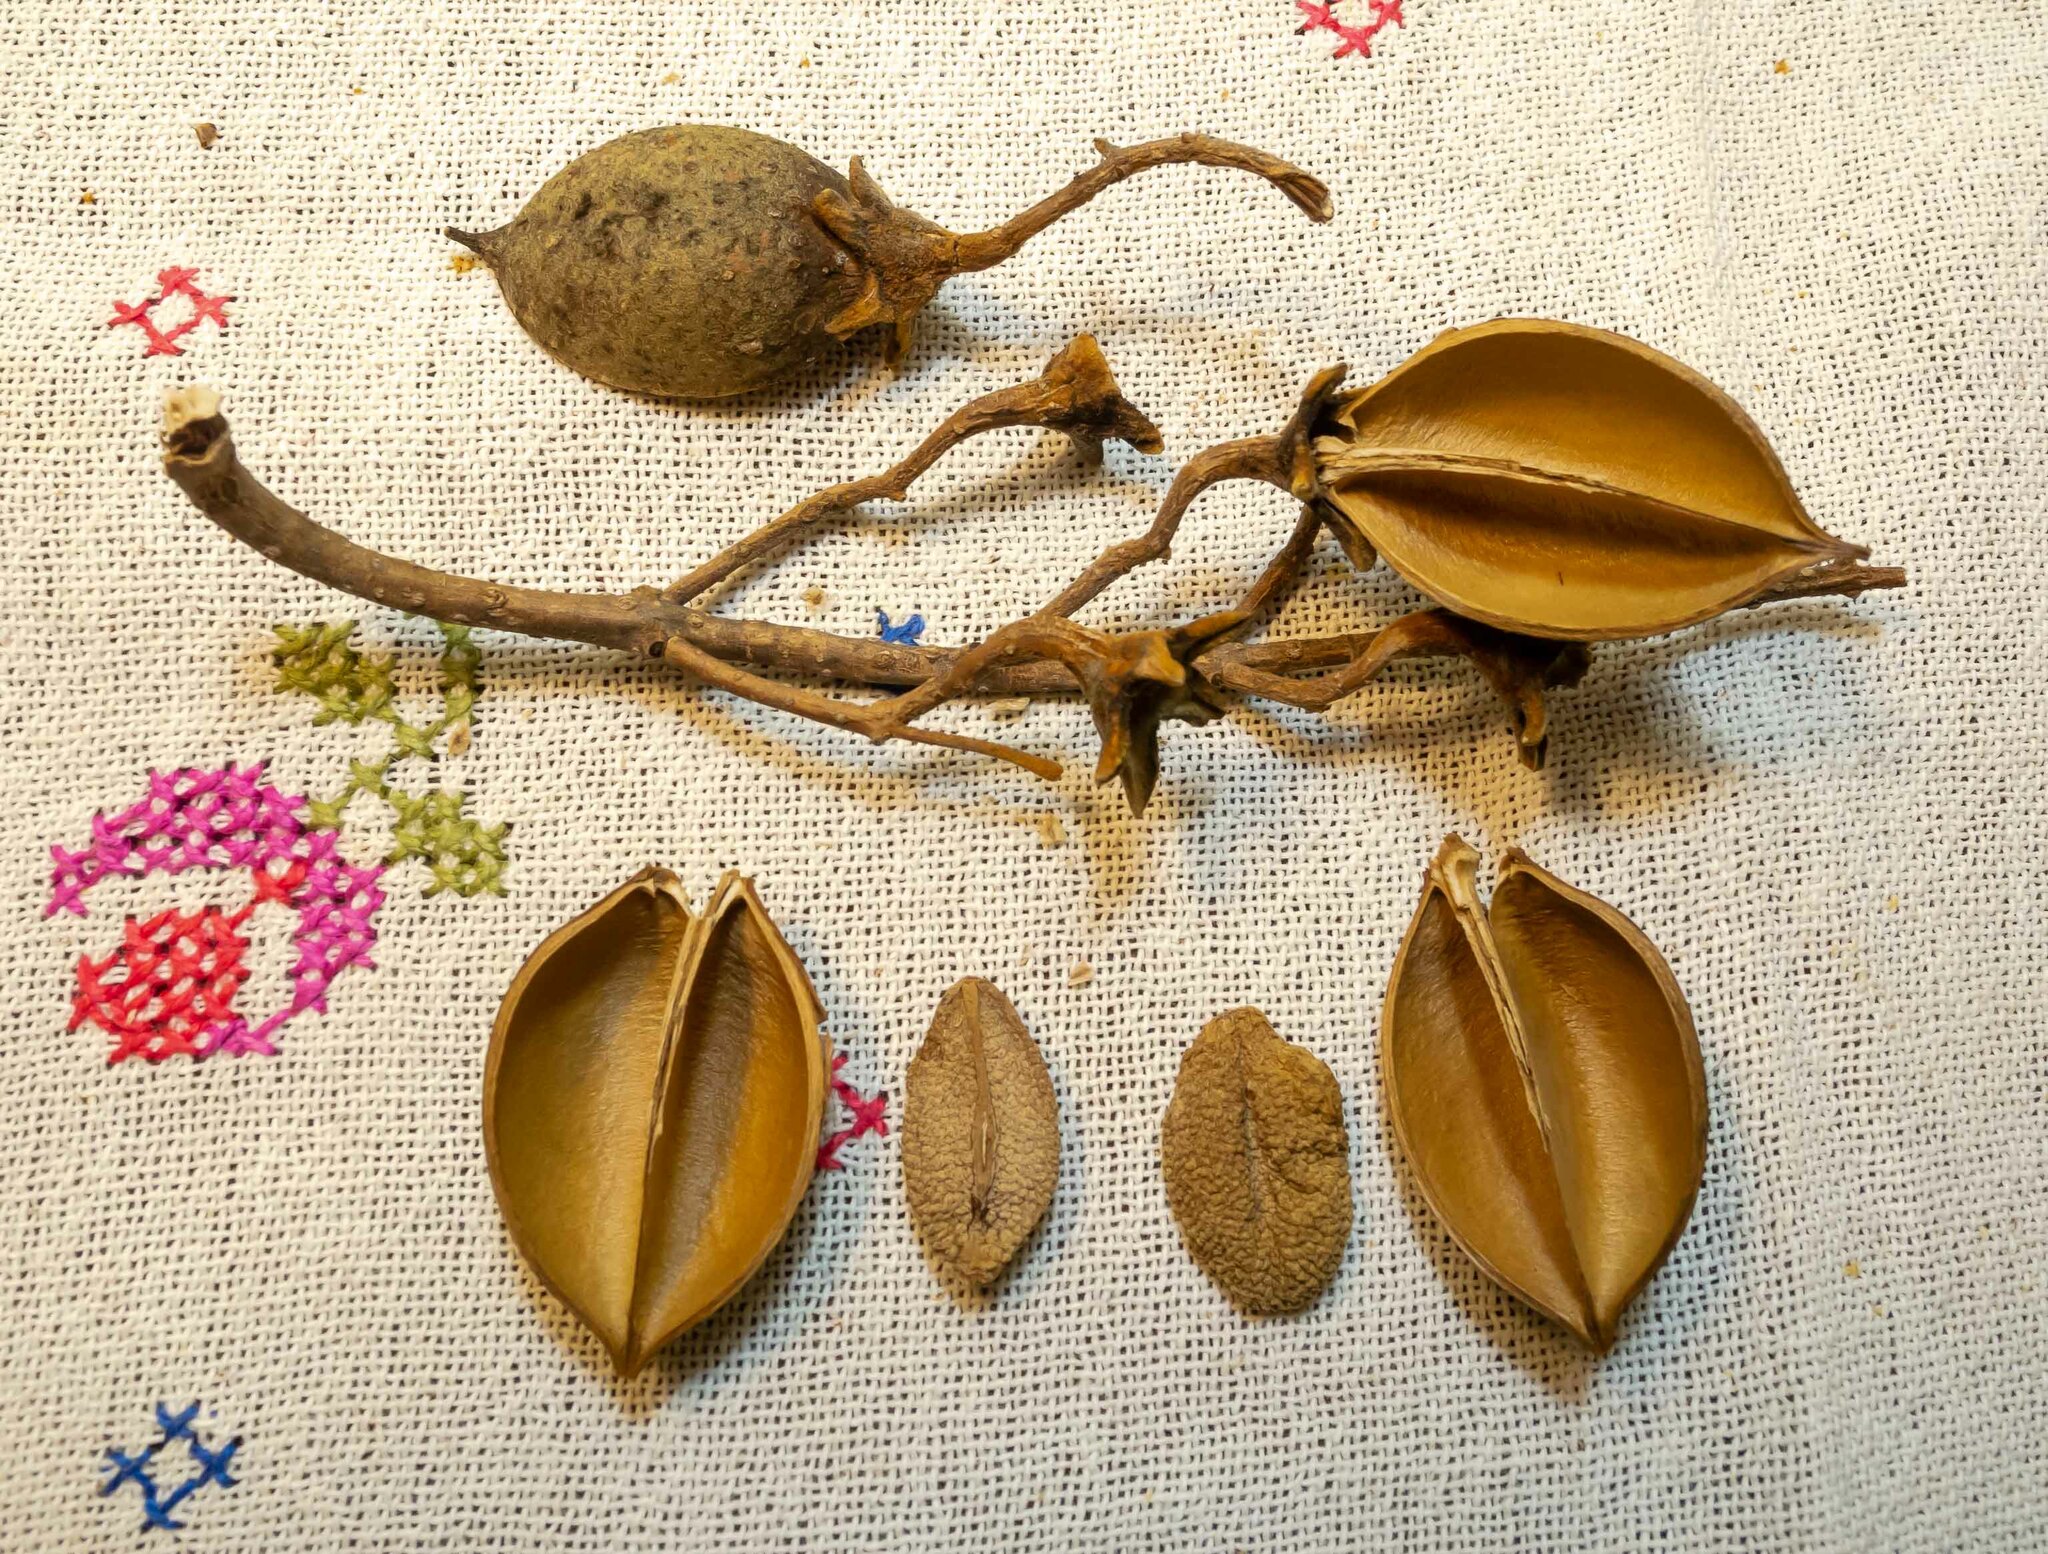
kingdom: Plantae
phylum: Tracheophyta
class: Magnoliopsida
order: Lamiales
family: Paulowniaceae
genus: Paulownia
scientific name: Paulownia tomentosa
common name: Foxglove-tree
